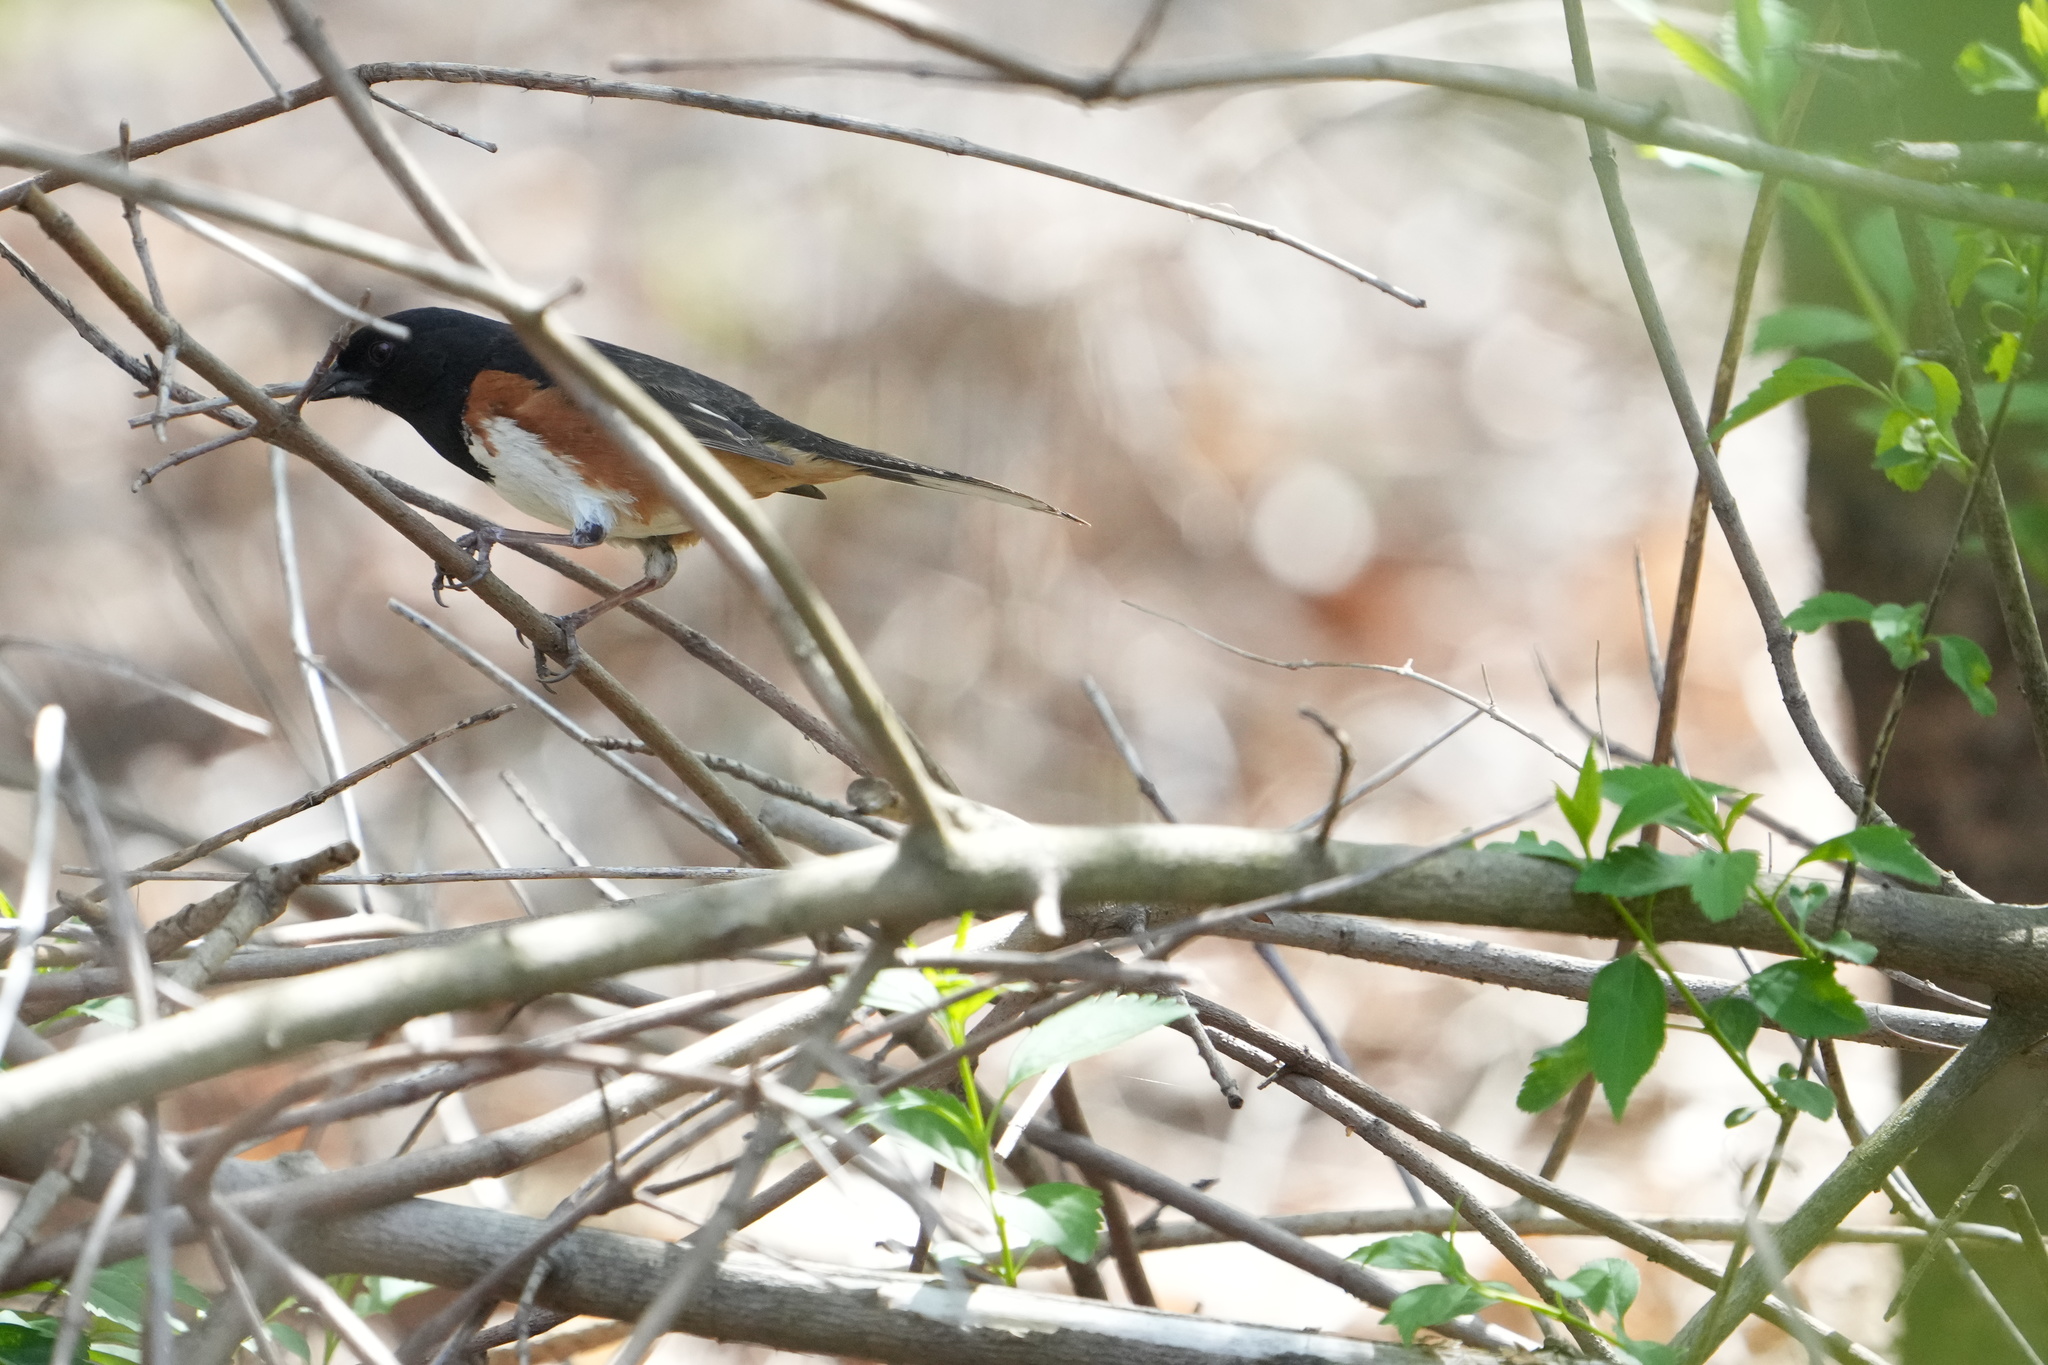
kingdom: Animalia
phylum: Chordata
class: Aves
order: Passeriformes
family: Passerellidae
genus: Pipilo
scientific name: Pipilo erythrophthalmus
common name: Eastern towhee
